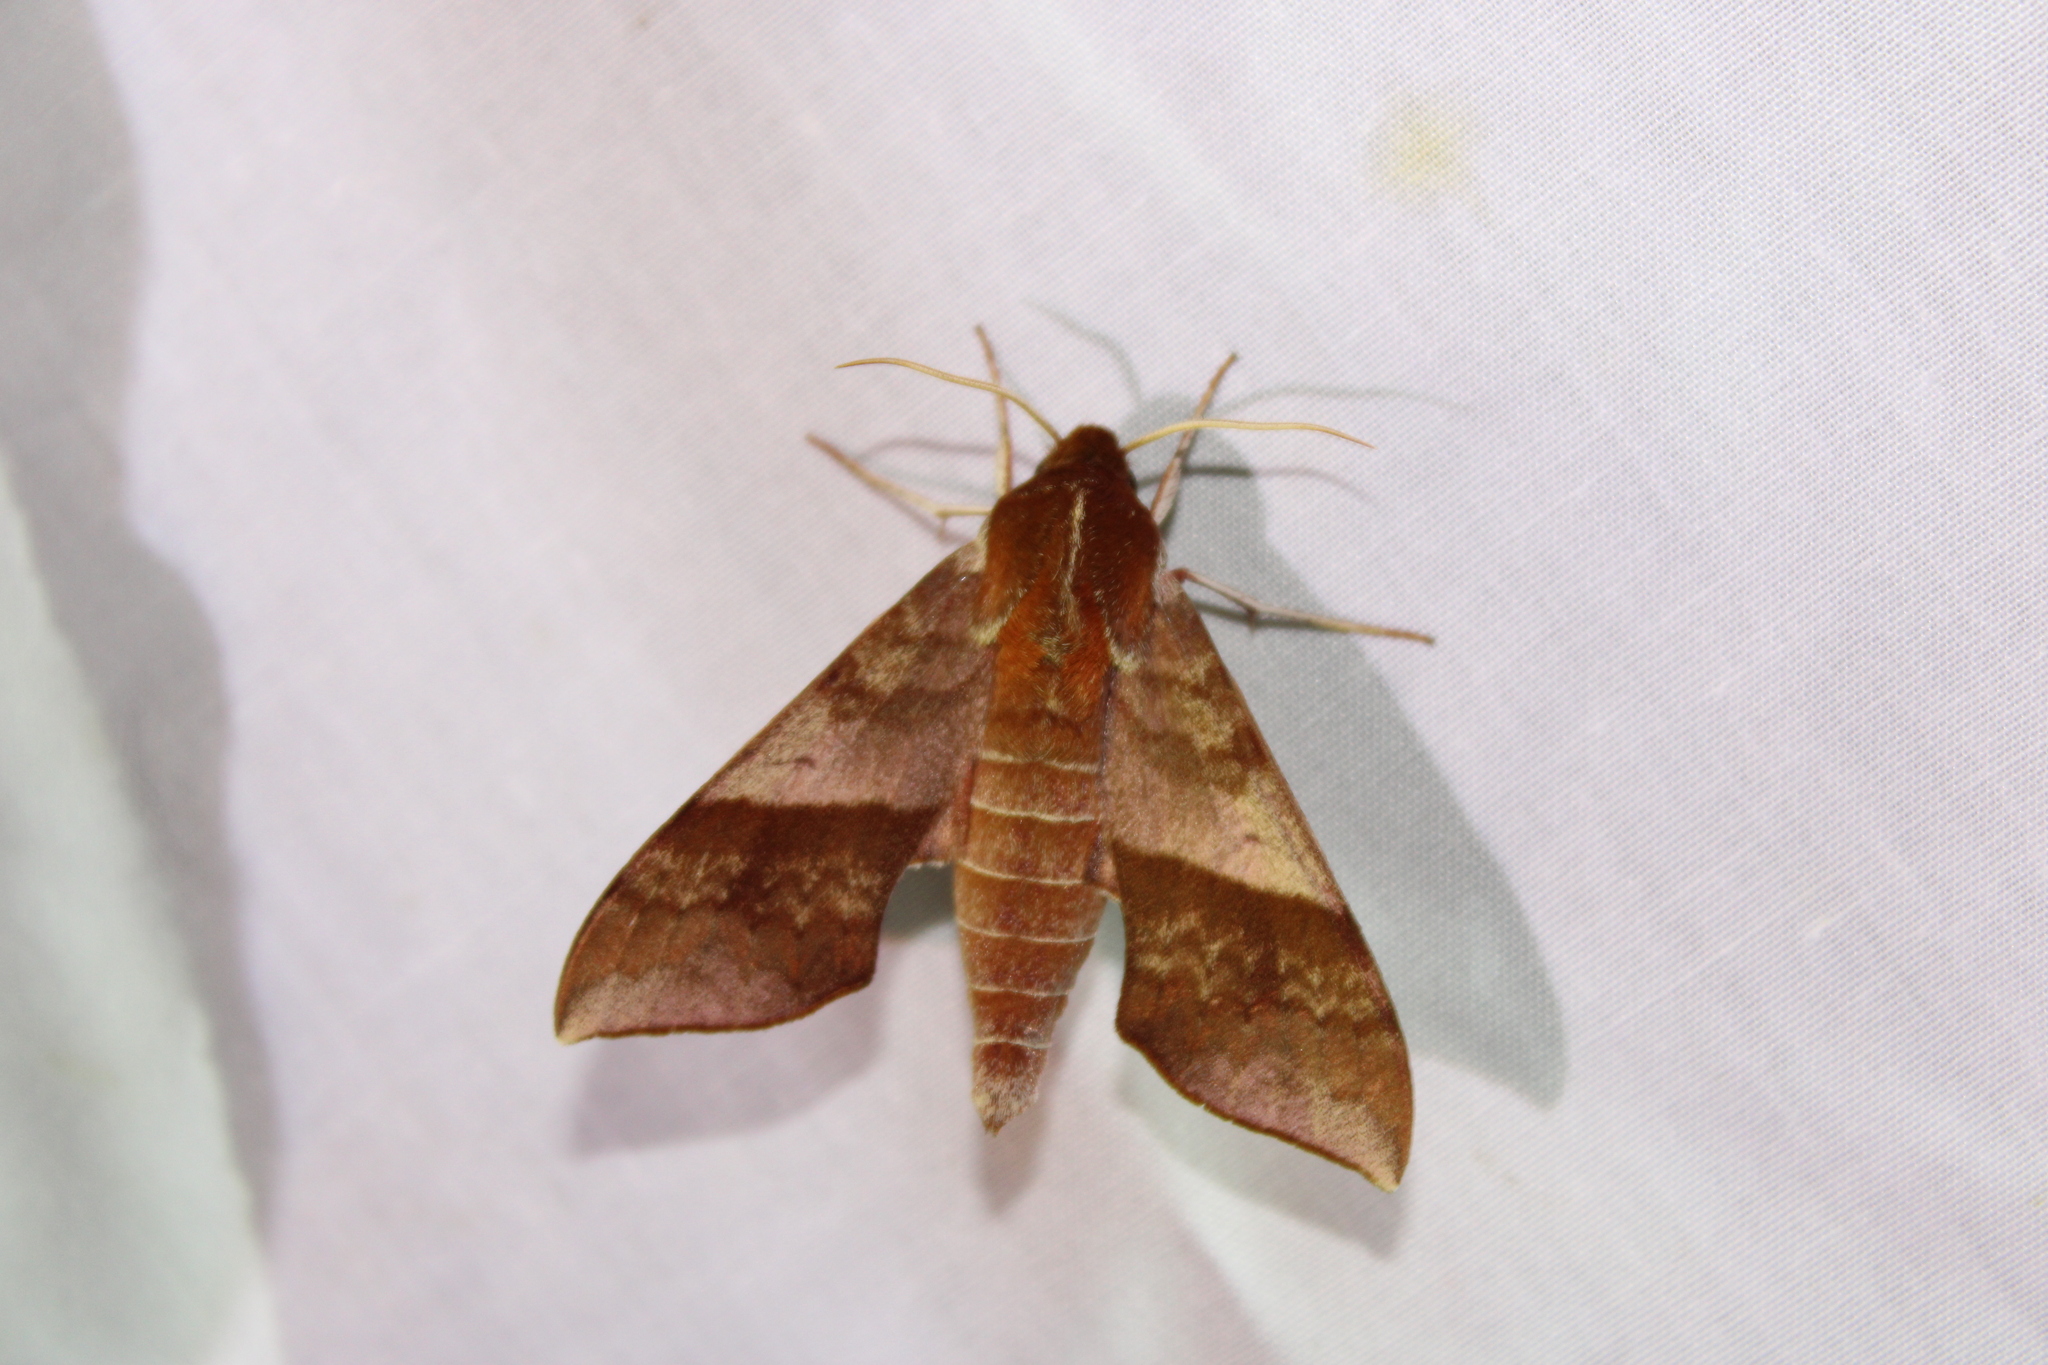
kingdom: Animalia
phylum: Arthropoda
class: Insecta
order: Lepidoptera
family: Sphingidae
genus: Darapsa
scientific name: Darapsa choerilus
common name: Azalea sphinx
